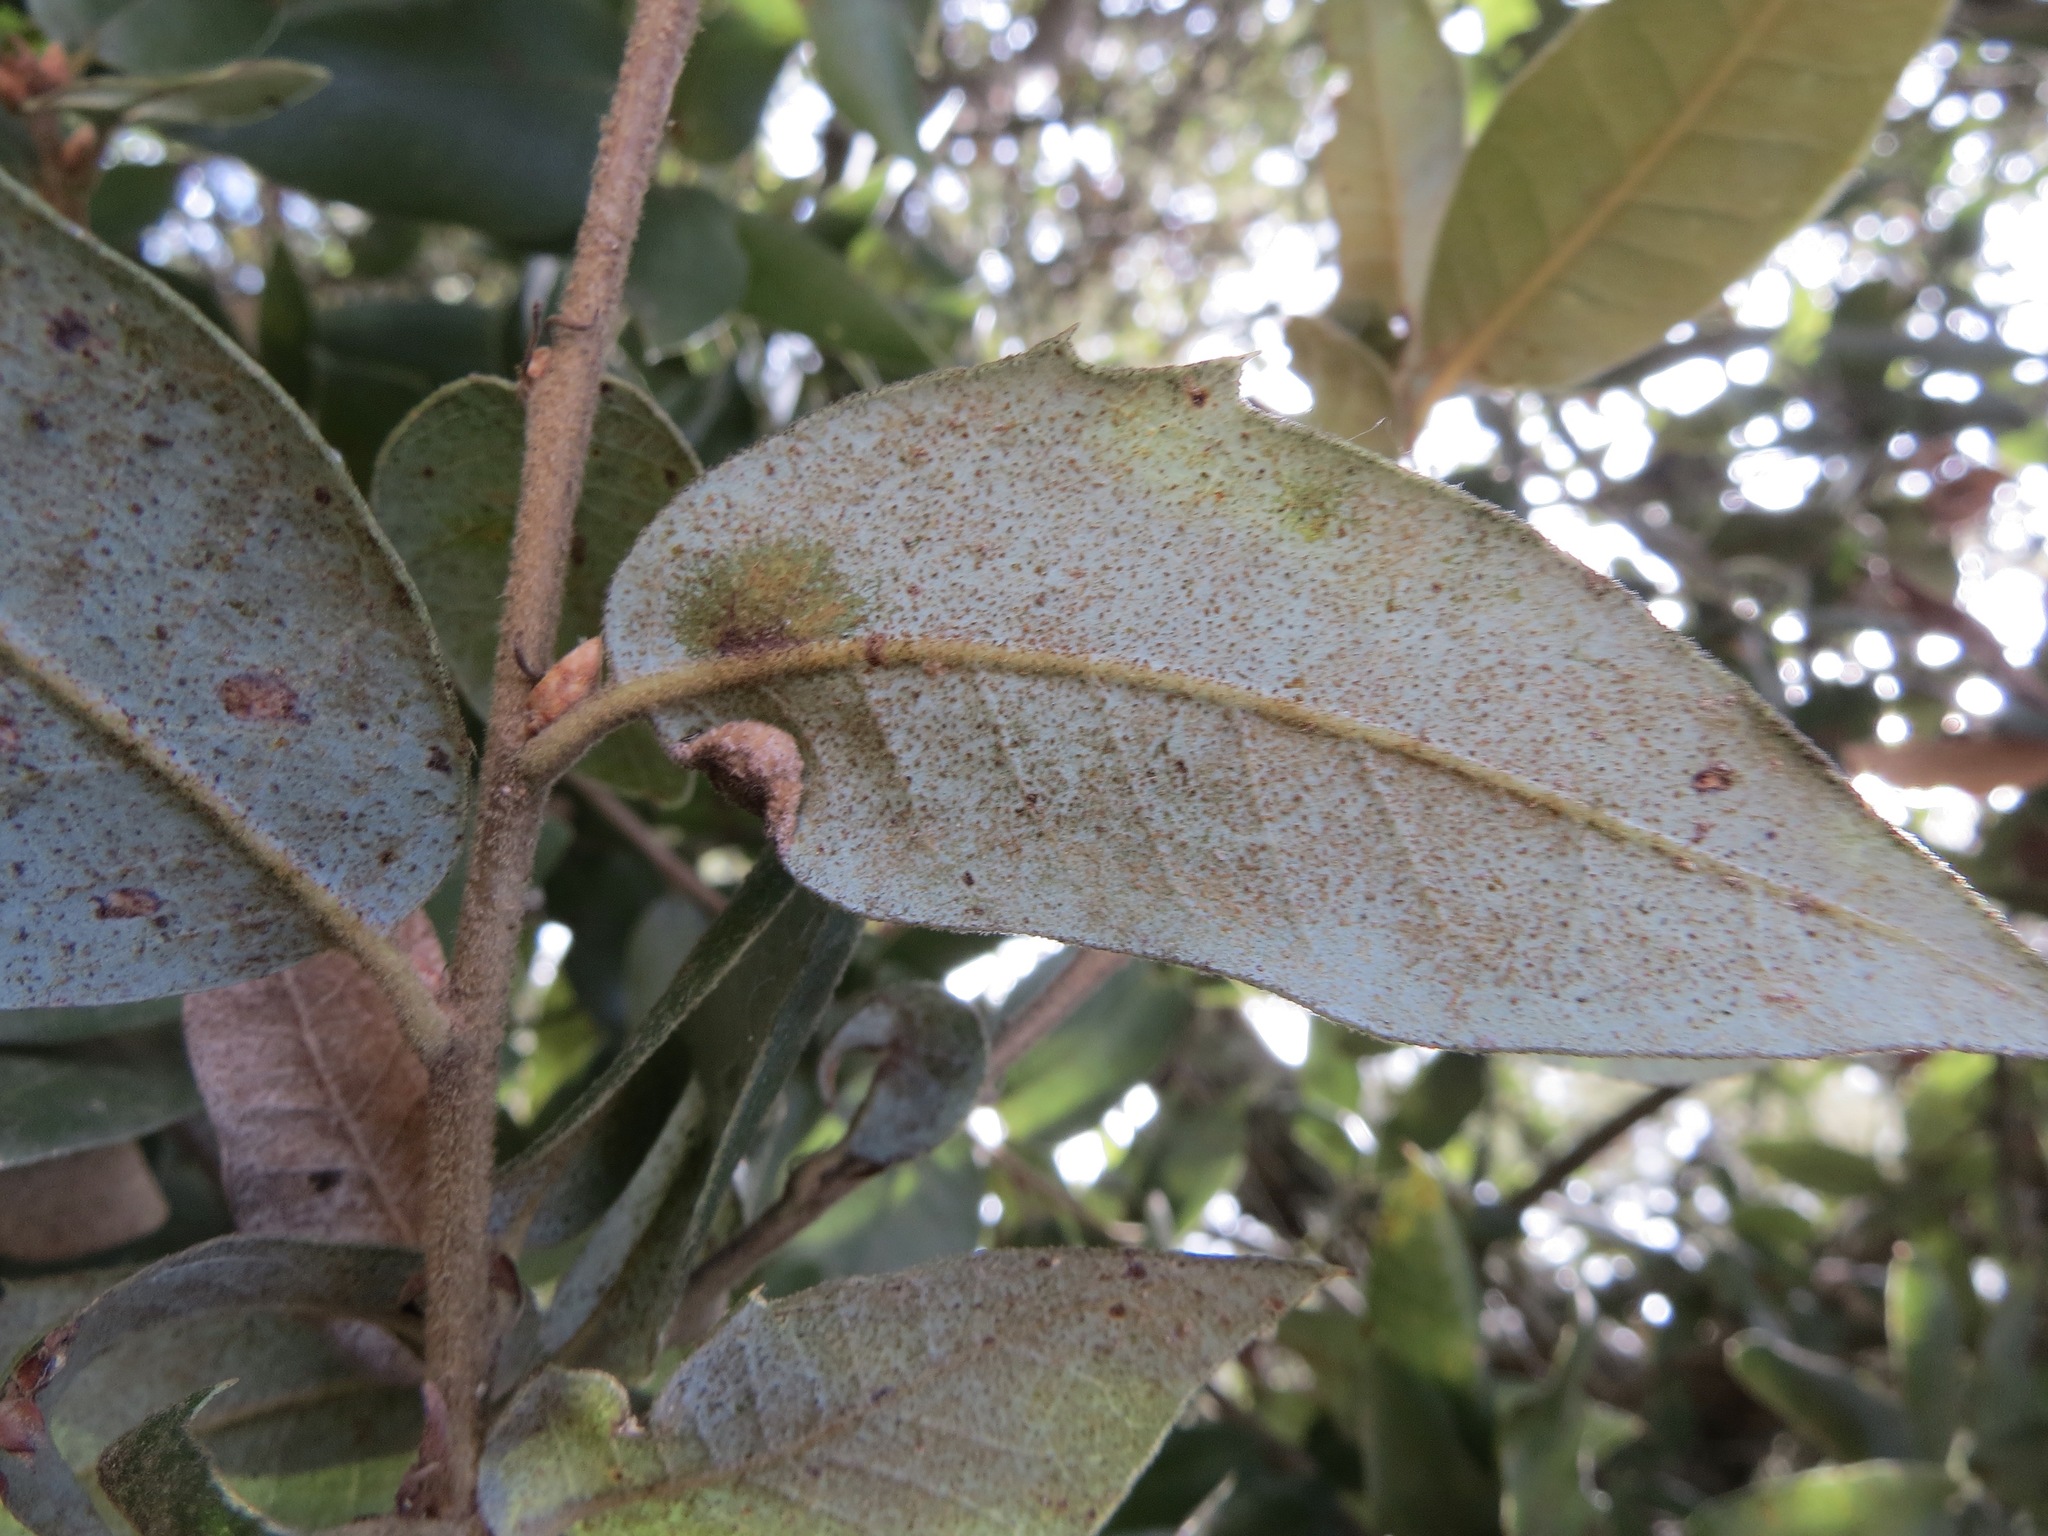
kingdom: Animalia
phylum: Arthropoda
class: Insecta
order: Diptera
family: Cecidomyiidae
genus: Dasineura
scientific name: Dasineura silvestrii
